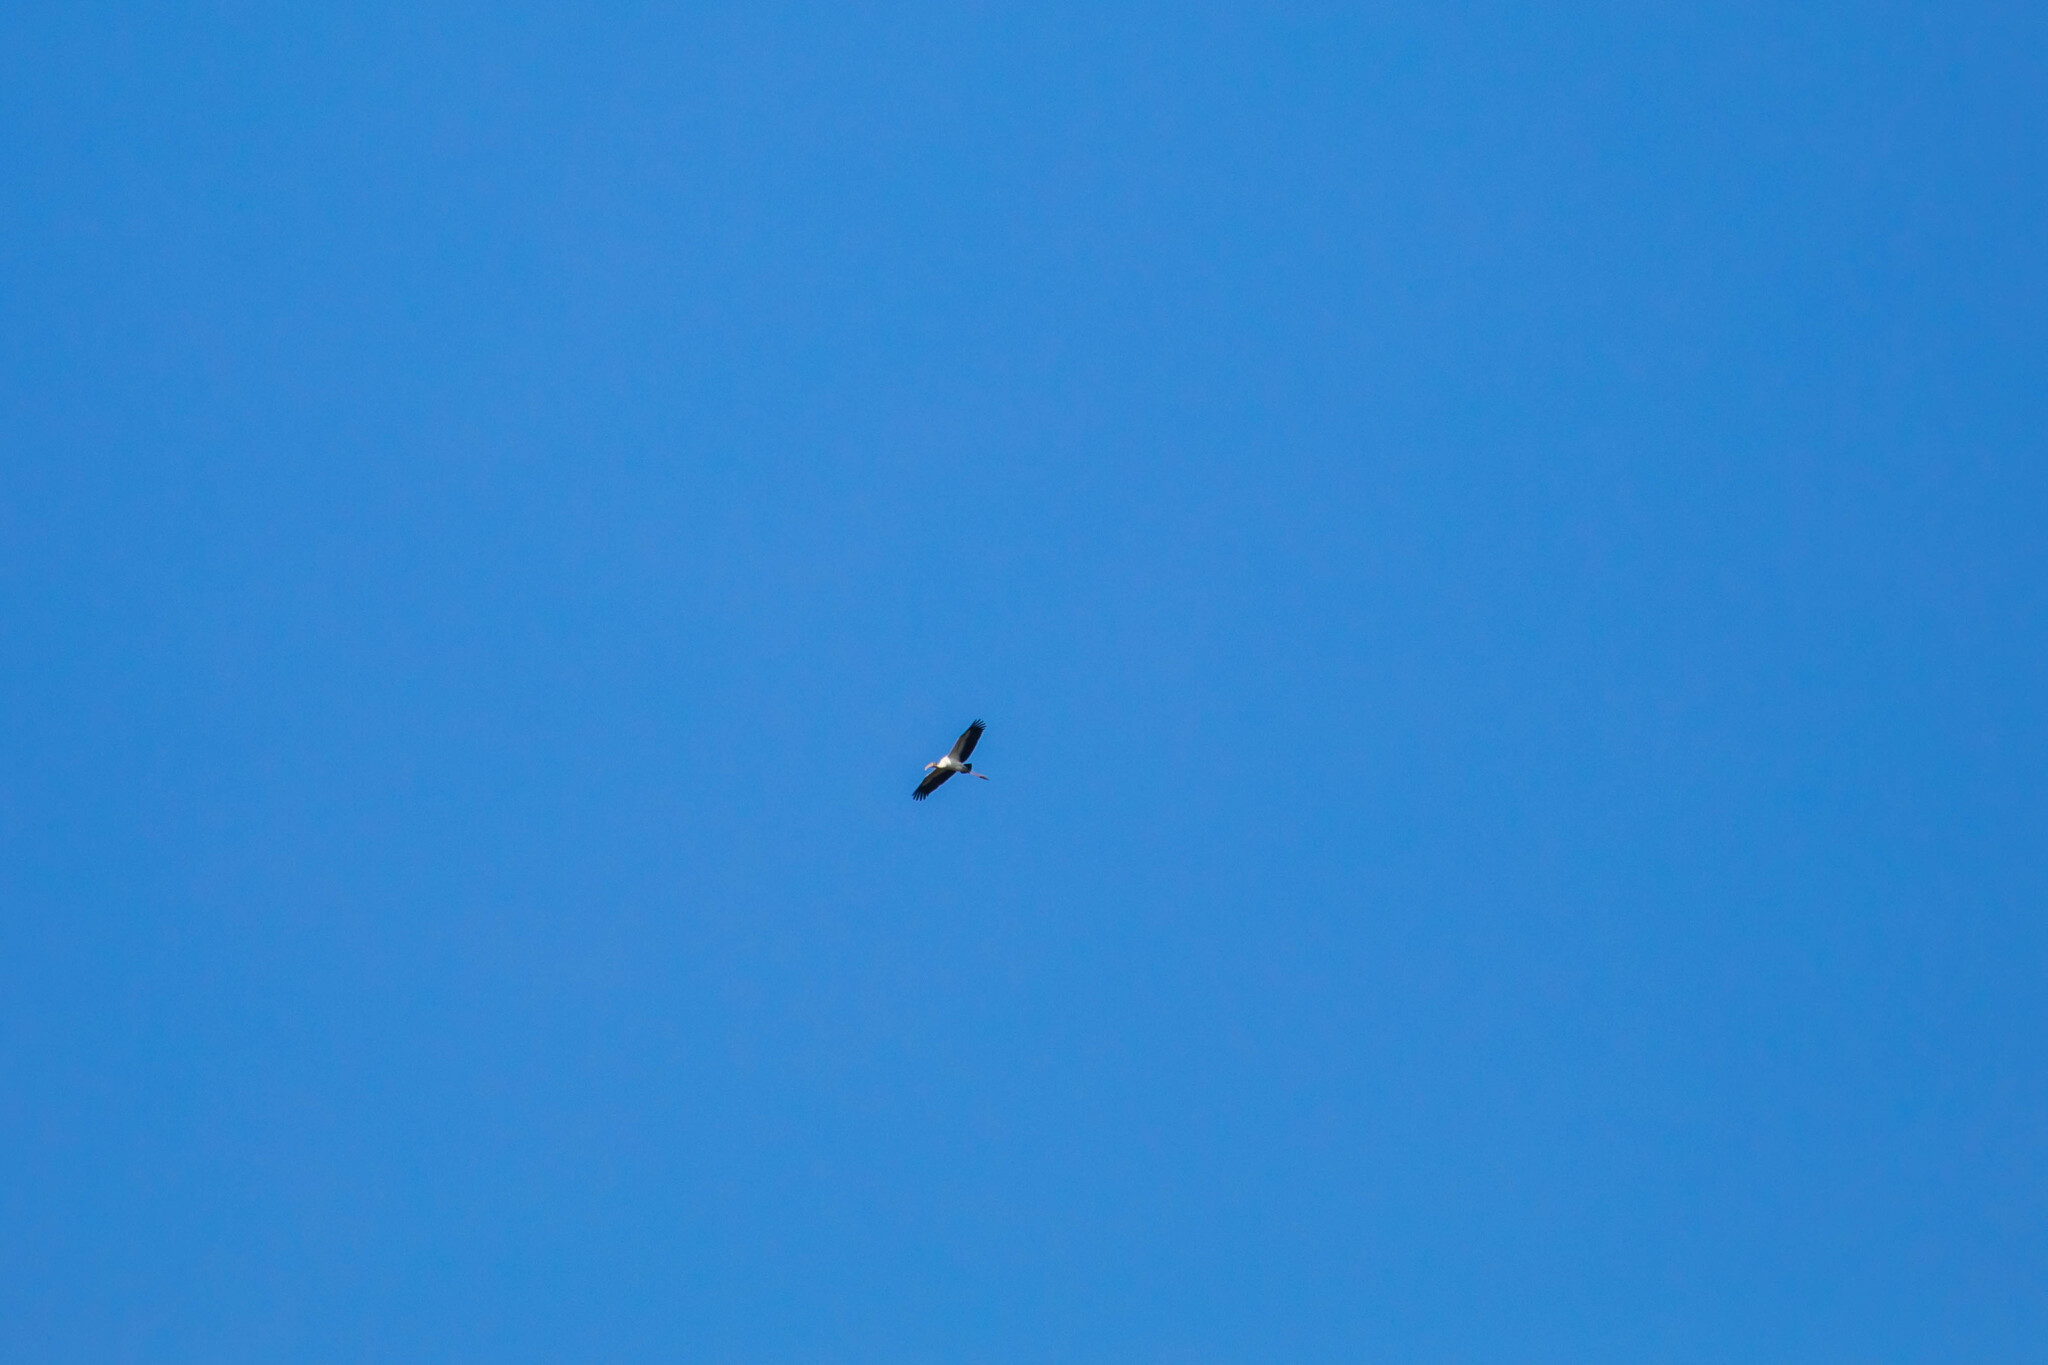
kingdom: Animalia
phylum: Chordata
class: Aves
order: Ciconiiformes
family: Ciconiidae
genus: Mycteria
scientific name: Mycteria americana
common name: Wood stork
